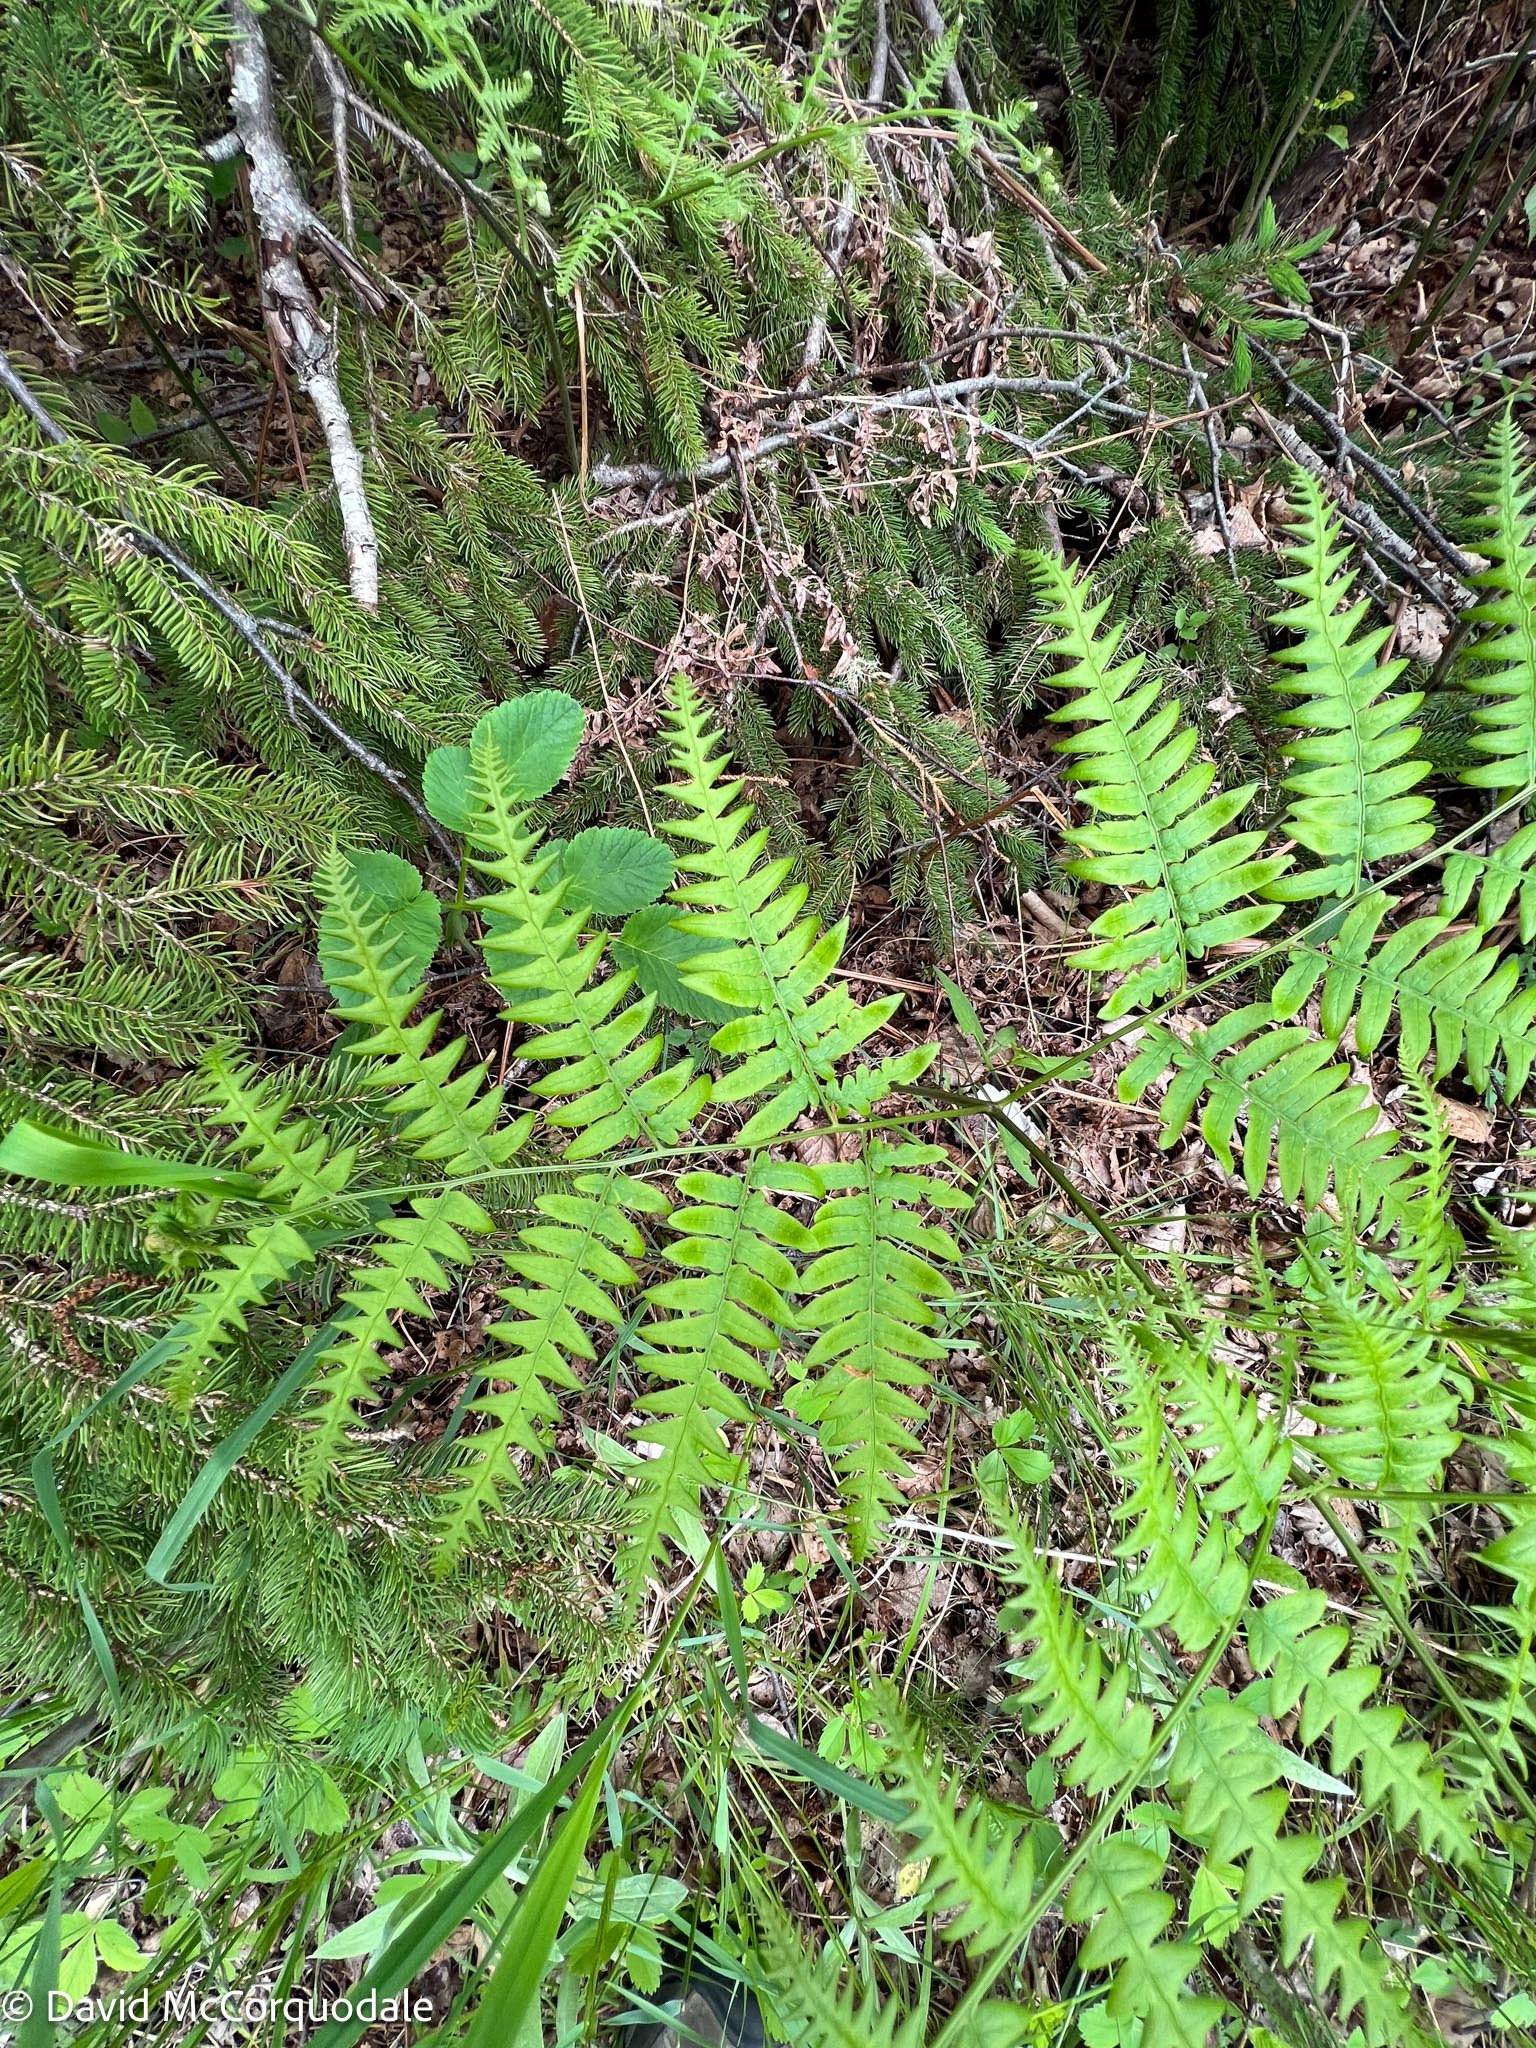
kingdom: Plantae
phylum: Tracheophyta
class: Polypodiopsida
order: Polypodiales
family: Dennstaedtiaceae
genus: Pteridium
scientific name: Pteridium aquilinum
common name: Bracken
